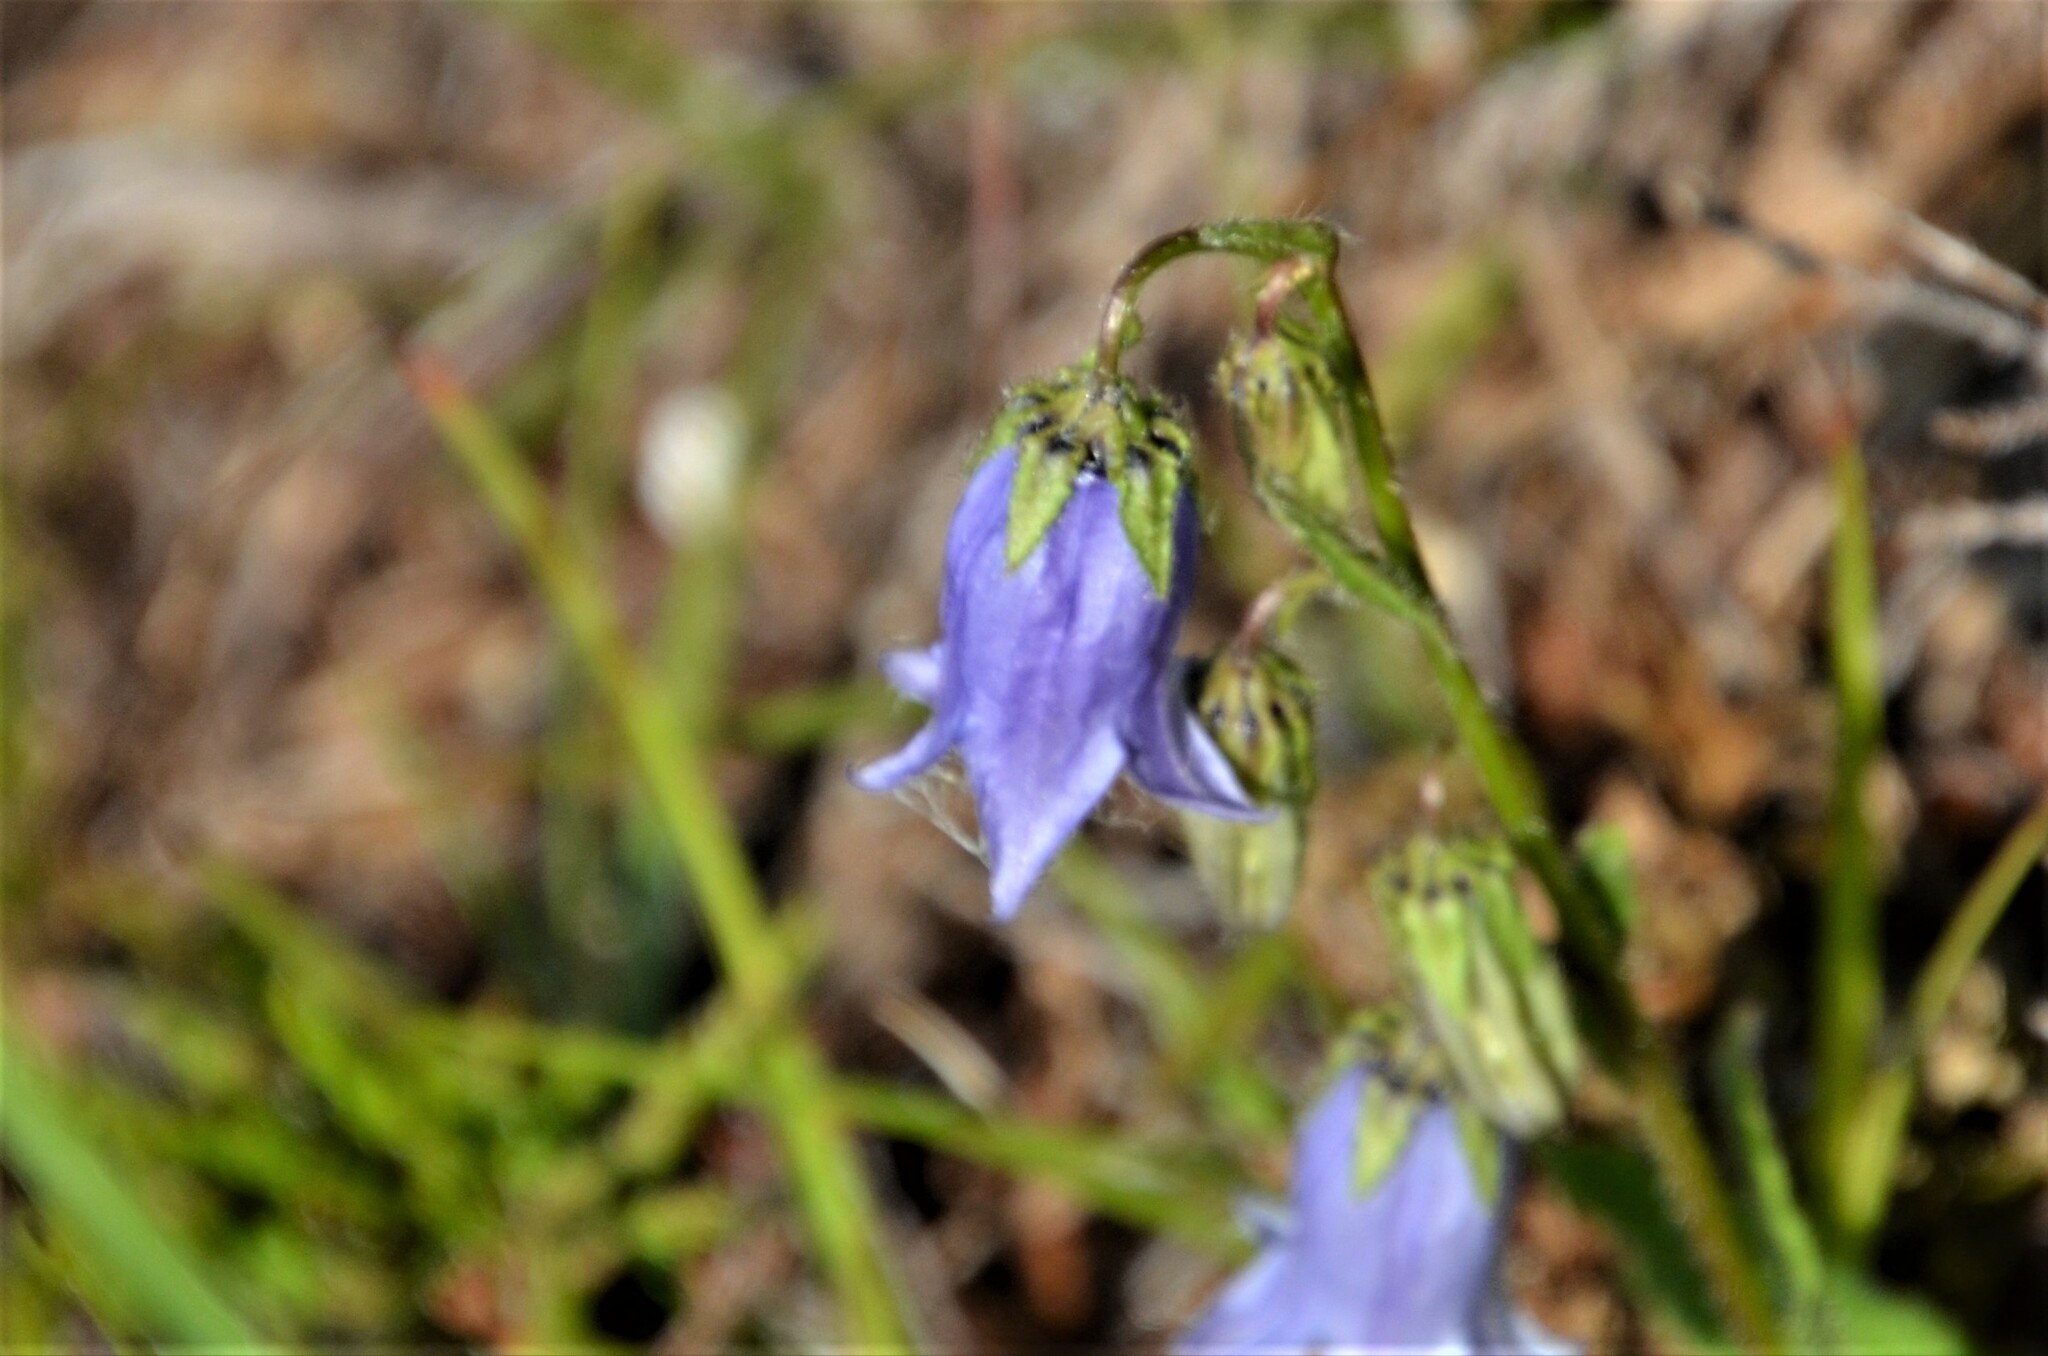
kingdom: Plantae
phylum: Tracheophyta
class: Magnoliopsida
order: Asterales
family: Campanulaceae
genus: Campanula
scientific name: Campanula barbata
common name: Bearded bellflower
